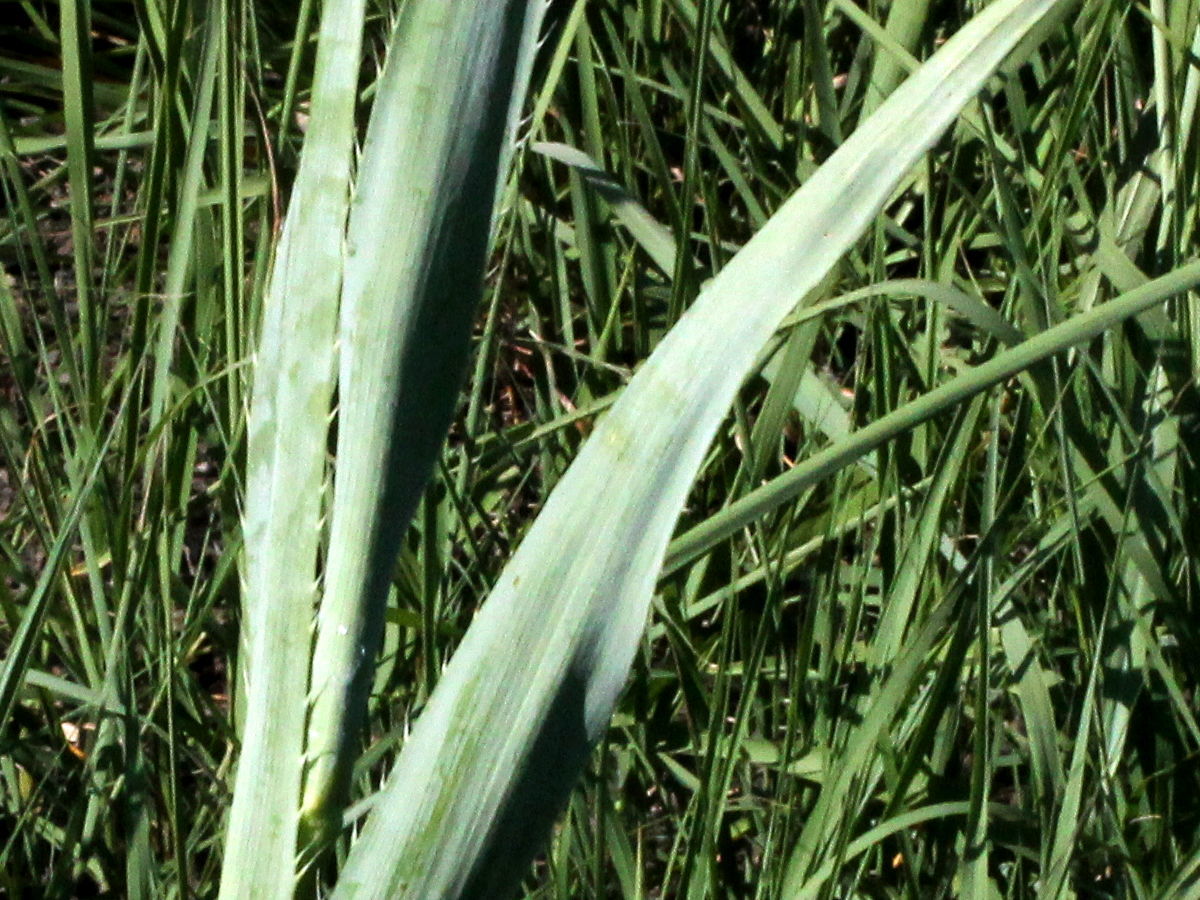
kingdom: Plantae
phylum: Tracheophyta
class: Magnoliopsida
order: Apiales
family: Apiaceae
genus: Eryngium
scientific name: Eryngium yuccifolium
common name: Button eryngo
